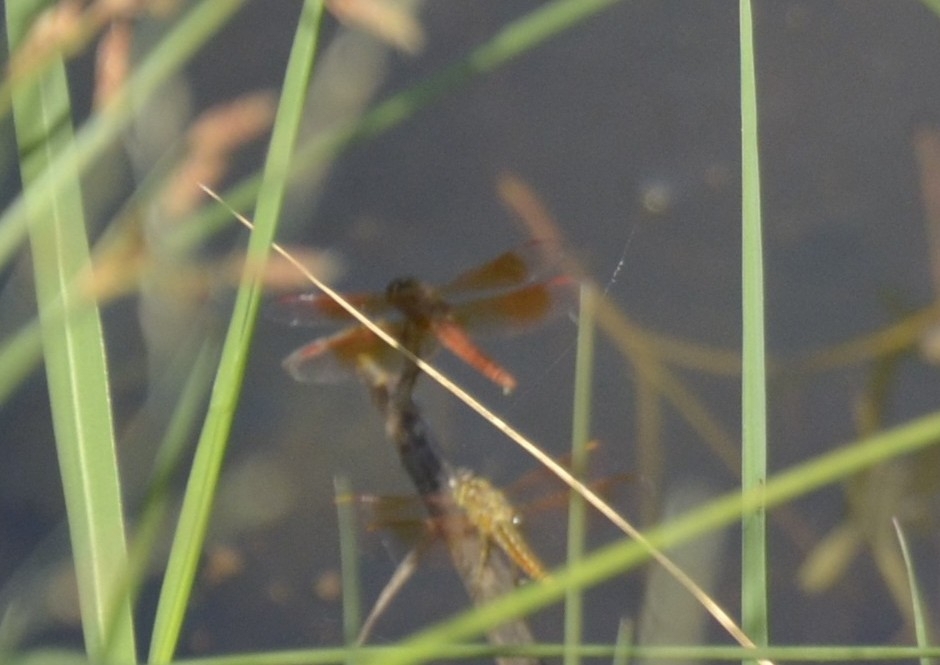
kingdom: Animalia
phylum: Arthropoda
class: Insecta
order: Odonata
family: Libellulidae
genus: Brachythemis
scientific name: Brachythemis contaminata
